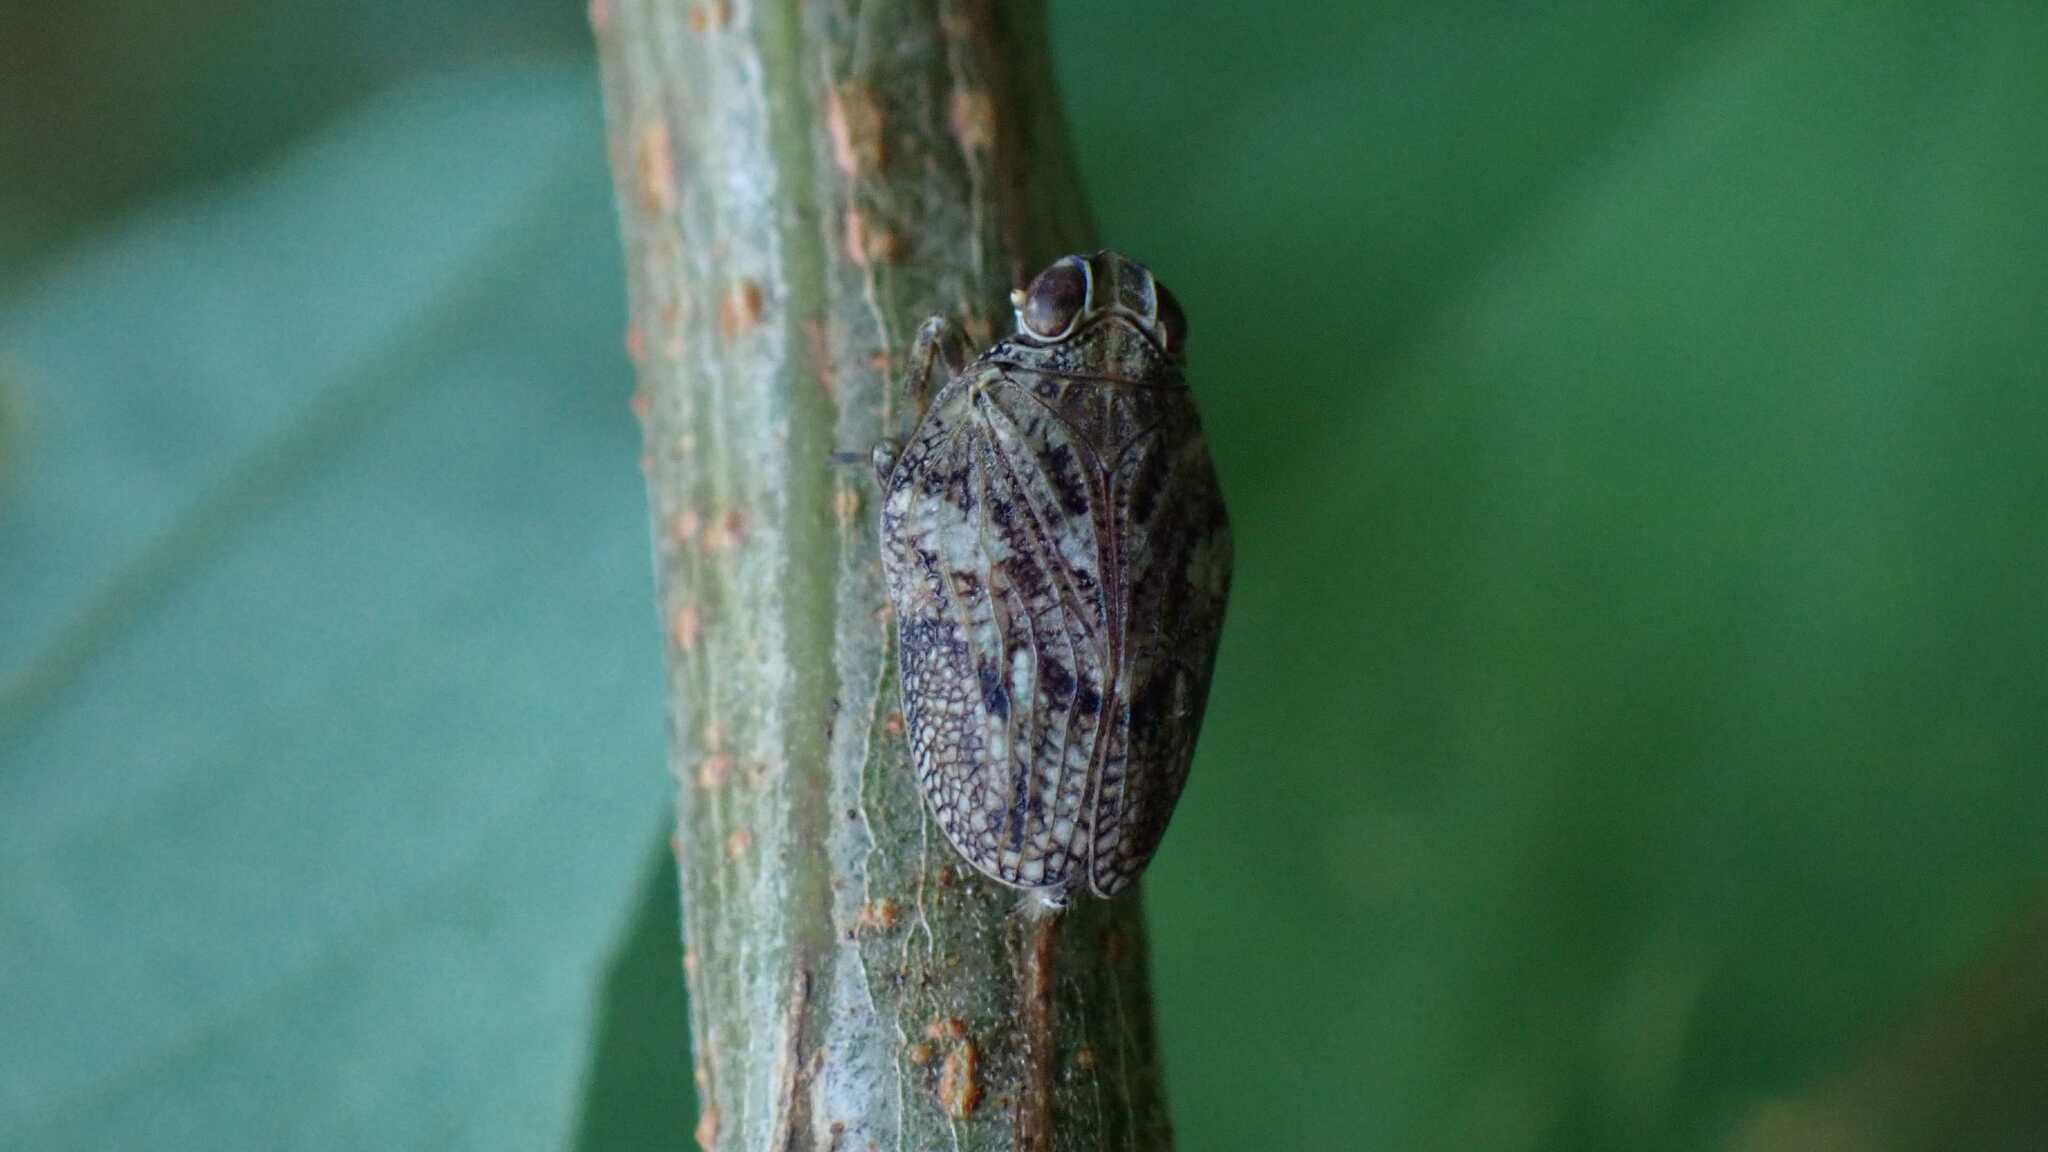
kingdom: Animalia
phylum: Arthropoda
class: Insecta
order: Hemiptera
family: Issidae
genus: Issus
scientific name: Issus coleoptratus
